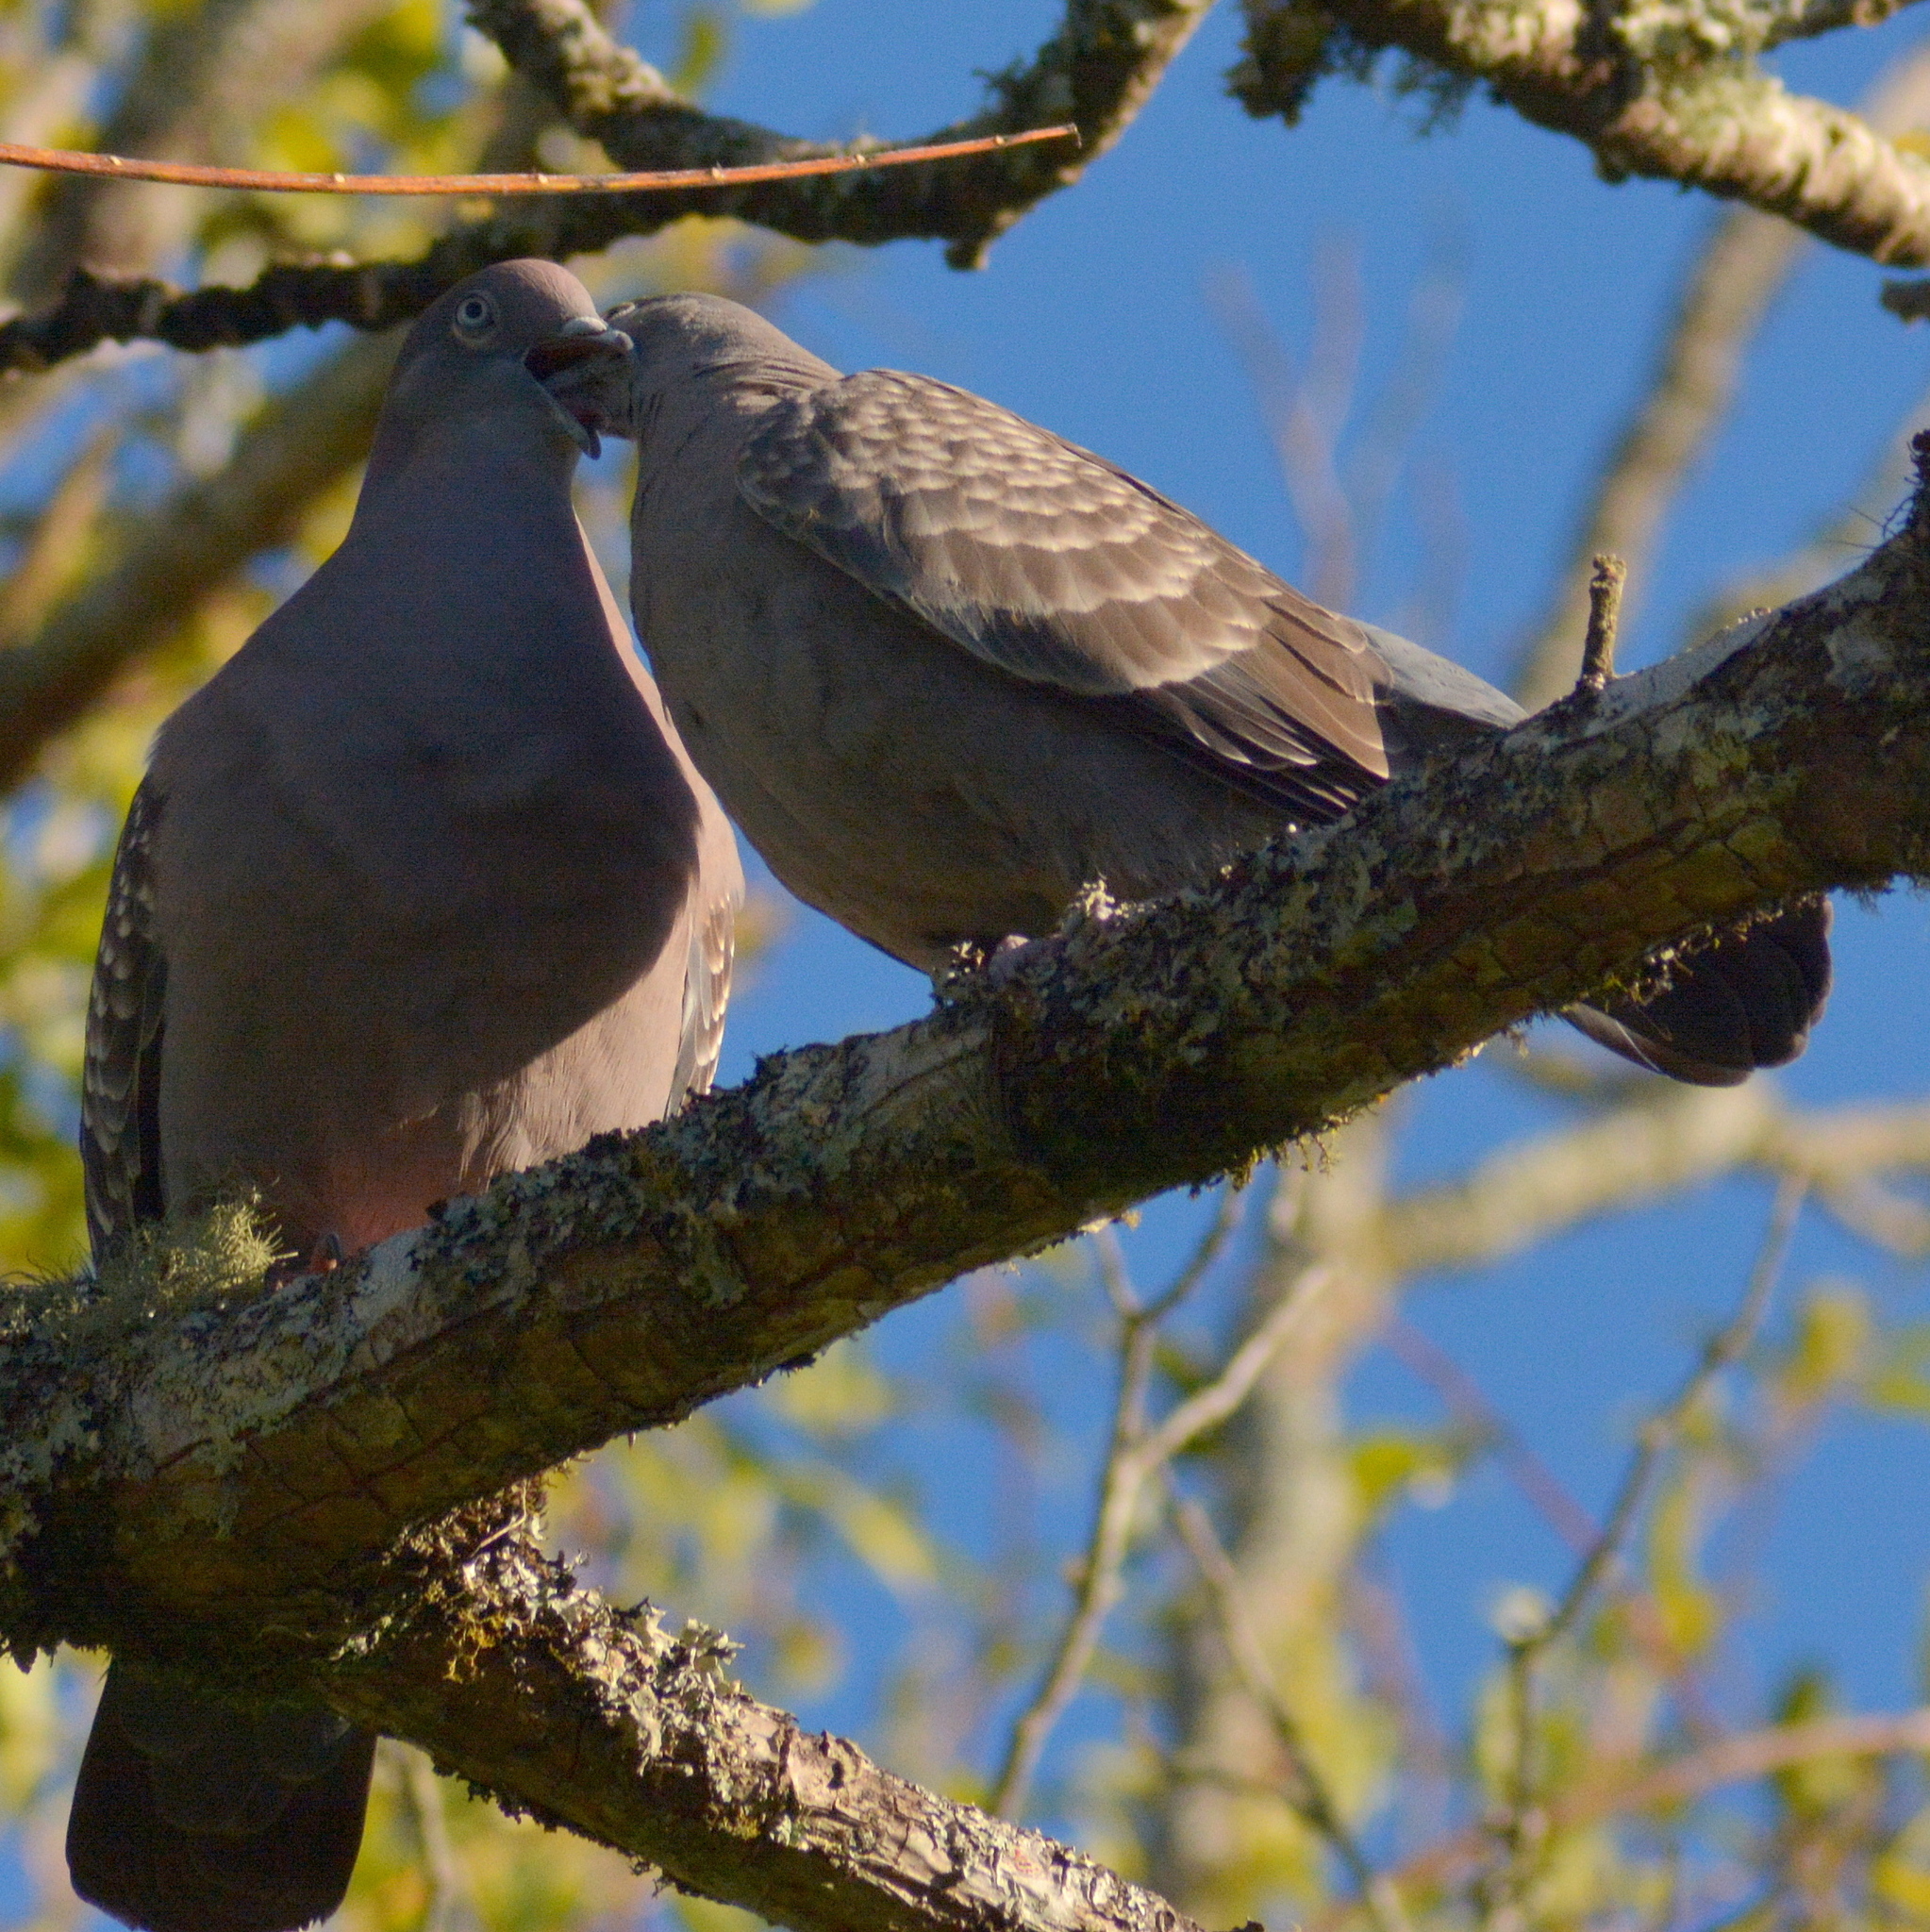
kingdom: Animalia
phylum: Chordata
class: Aves
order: Columbiformes
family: Columbidae
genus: Patagioenas
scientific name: Patagioenas maculosa
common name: Spot-winged pigeon
